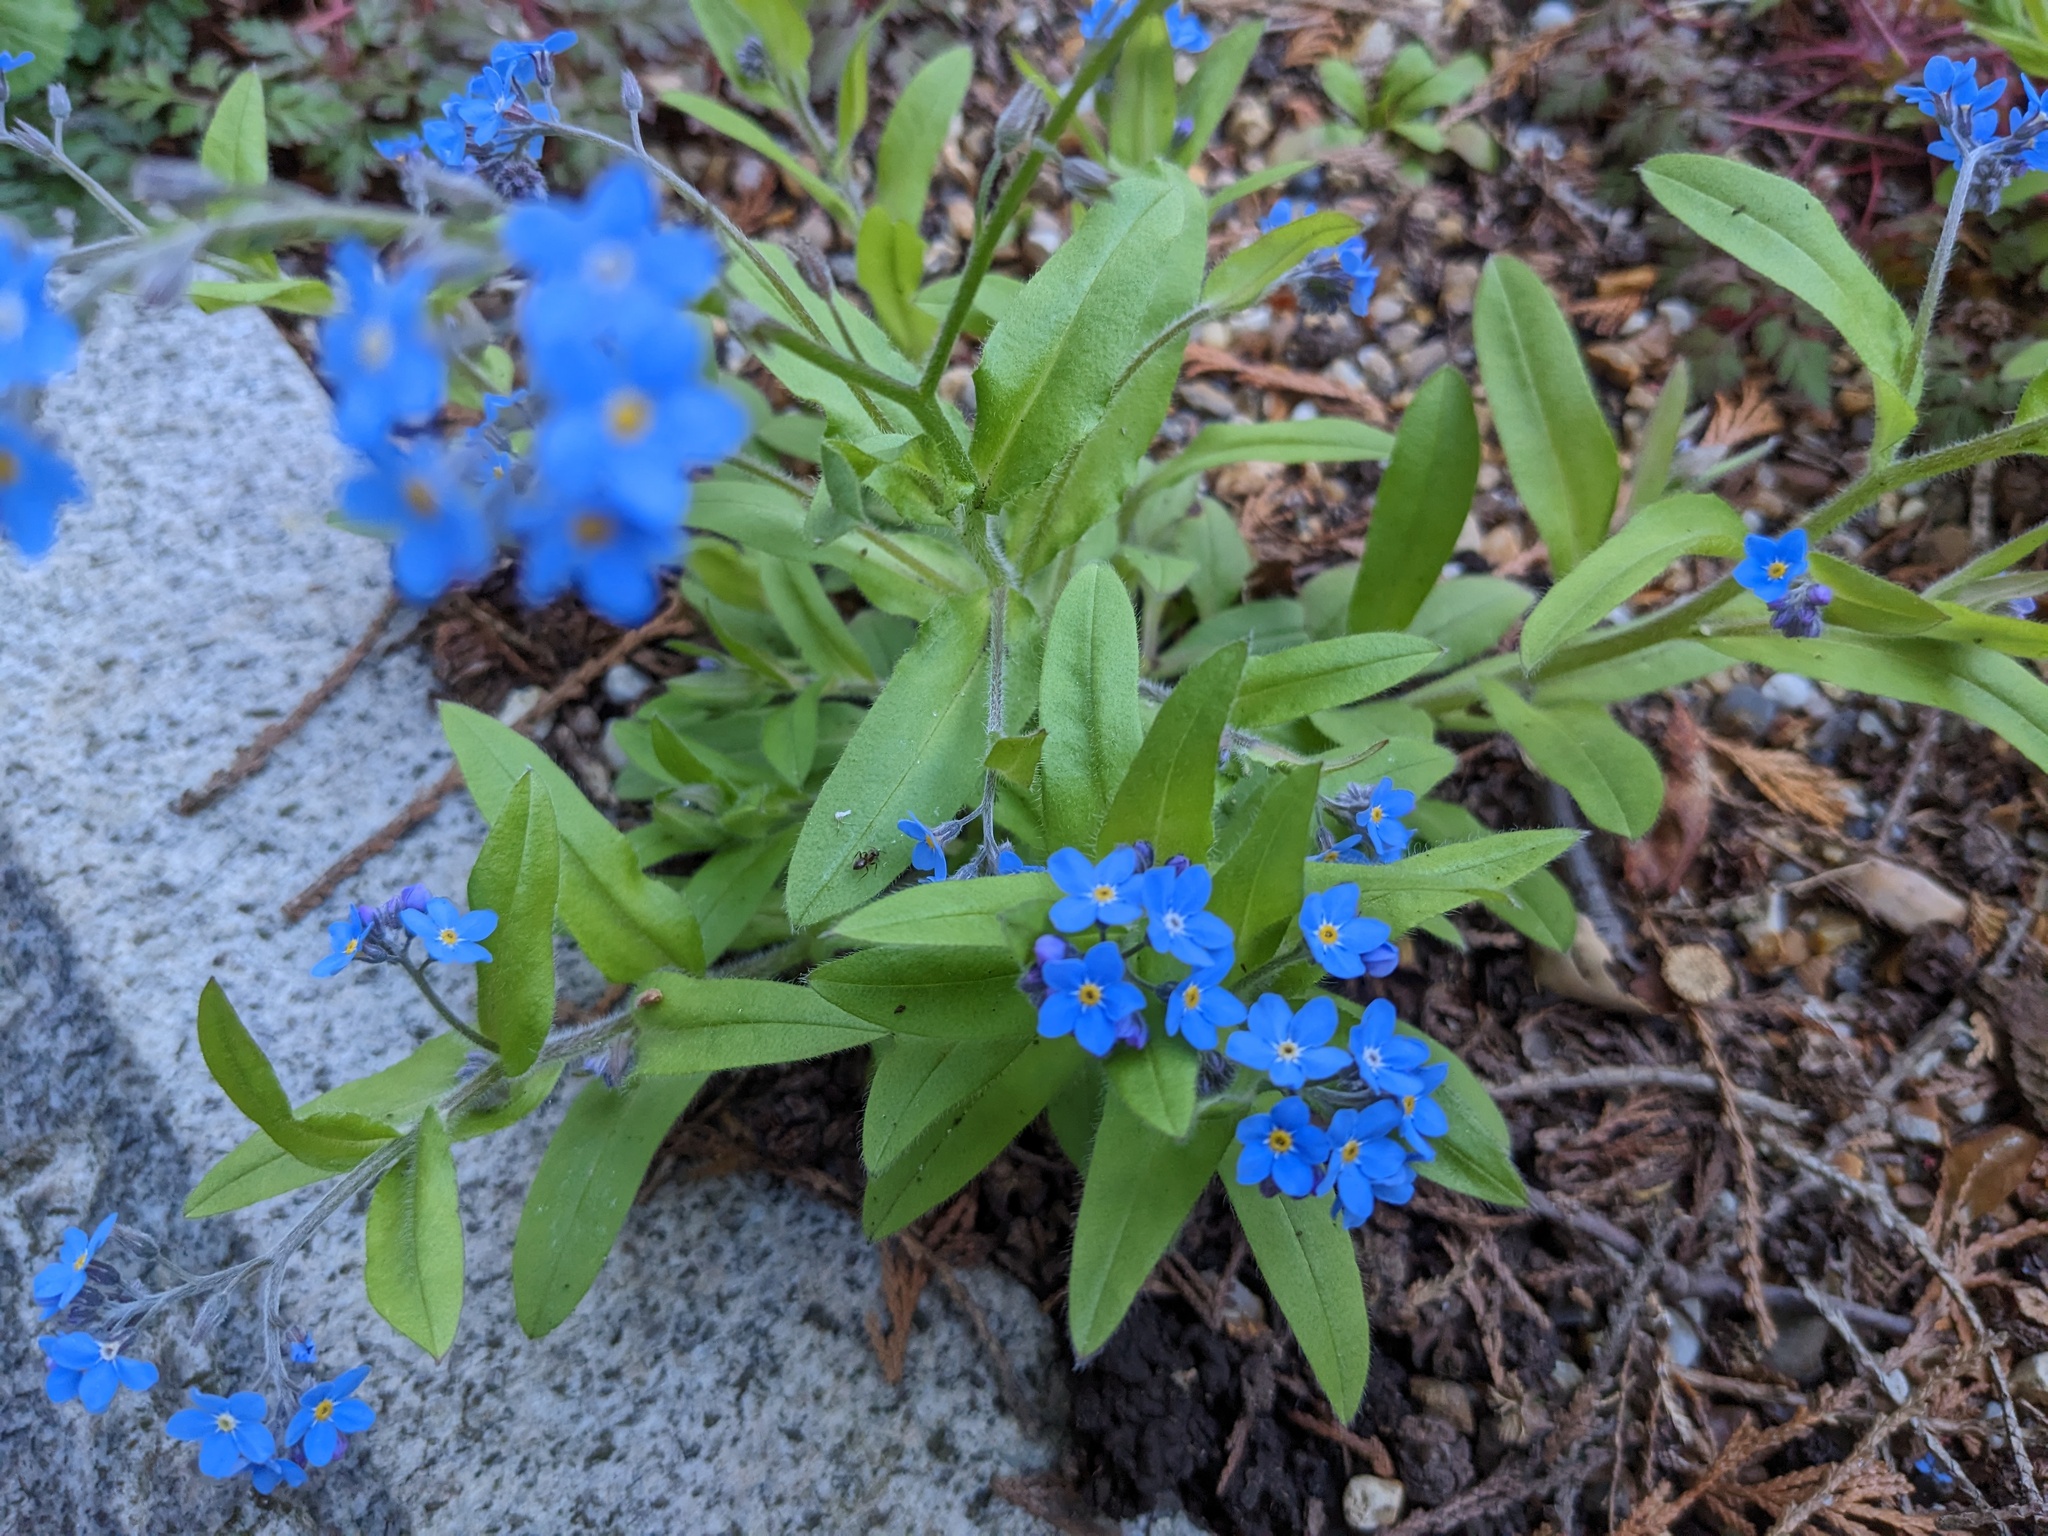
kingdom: Plantae
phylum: Tracheophyta
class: Magnoliopsida
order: Boraginales
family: Boraginaceae
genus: Myosotis
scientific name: Myosotis sylvatica
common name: Wood forget-me-not
